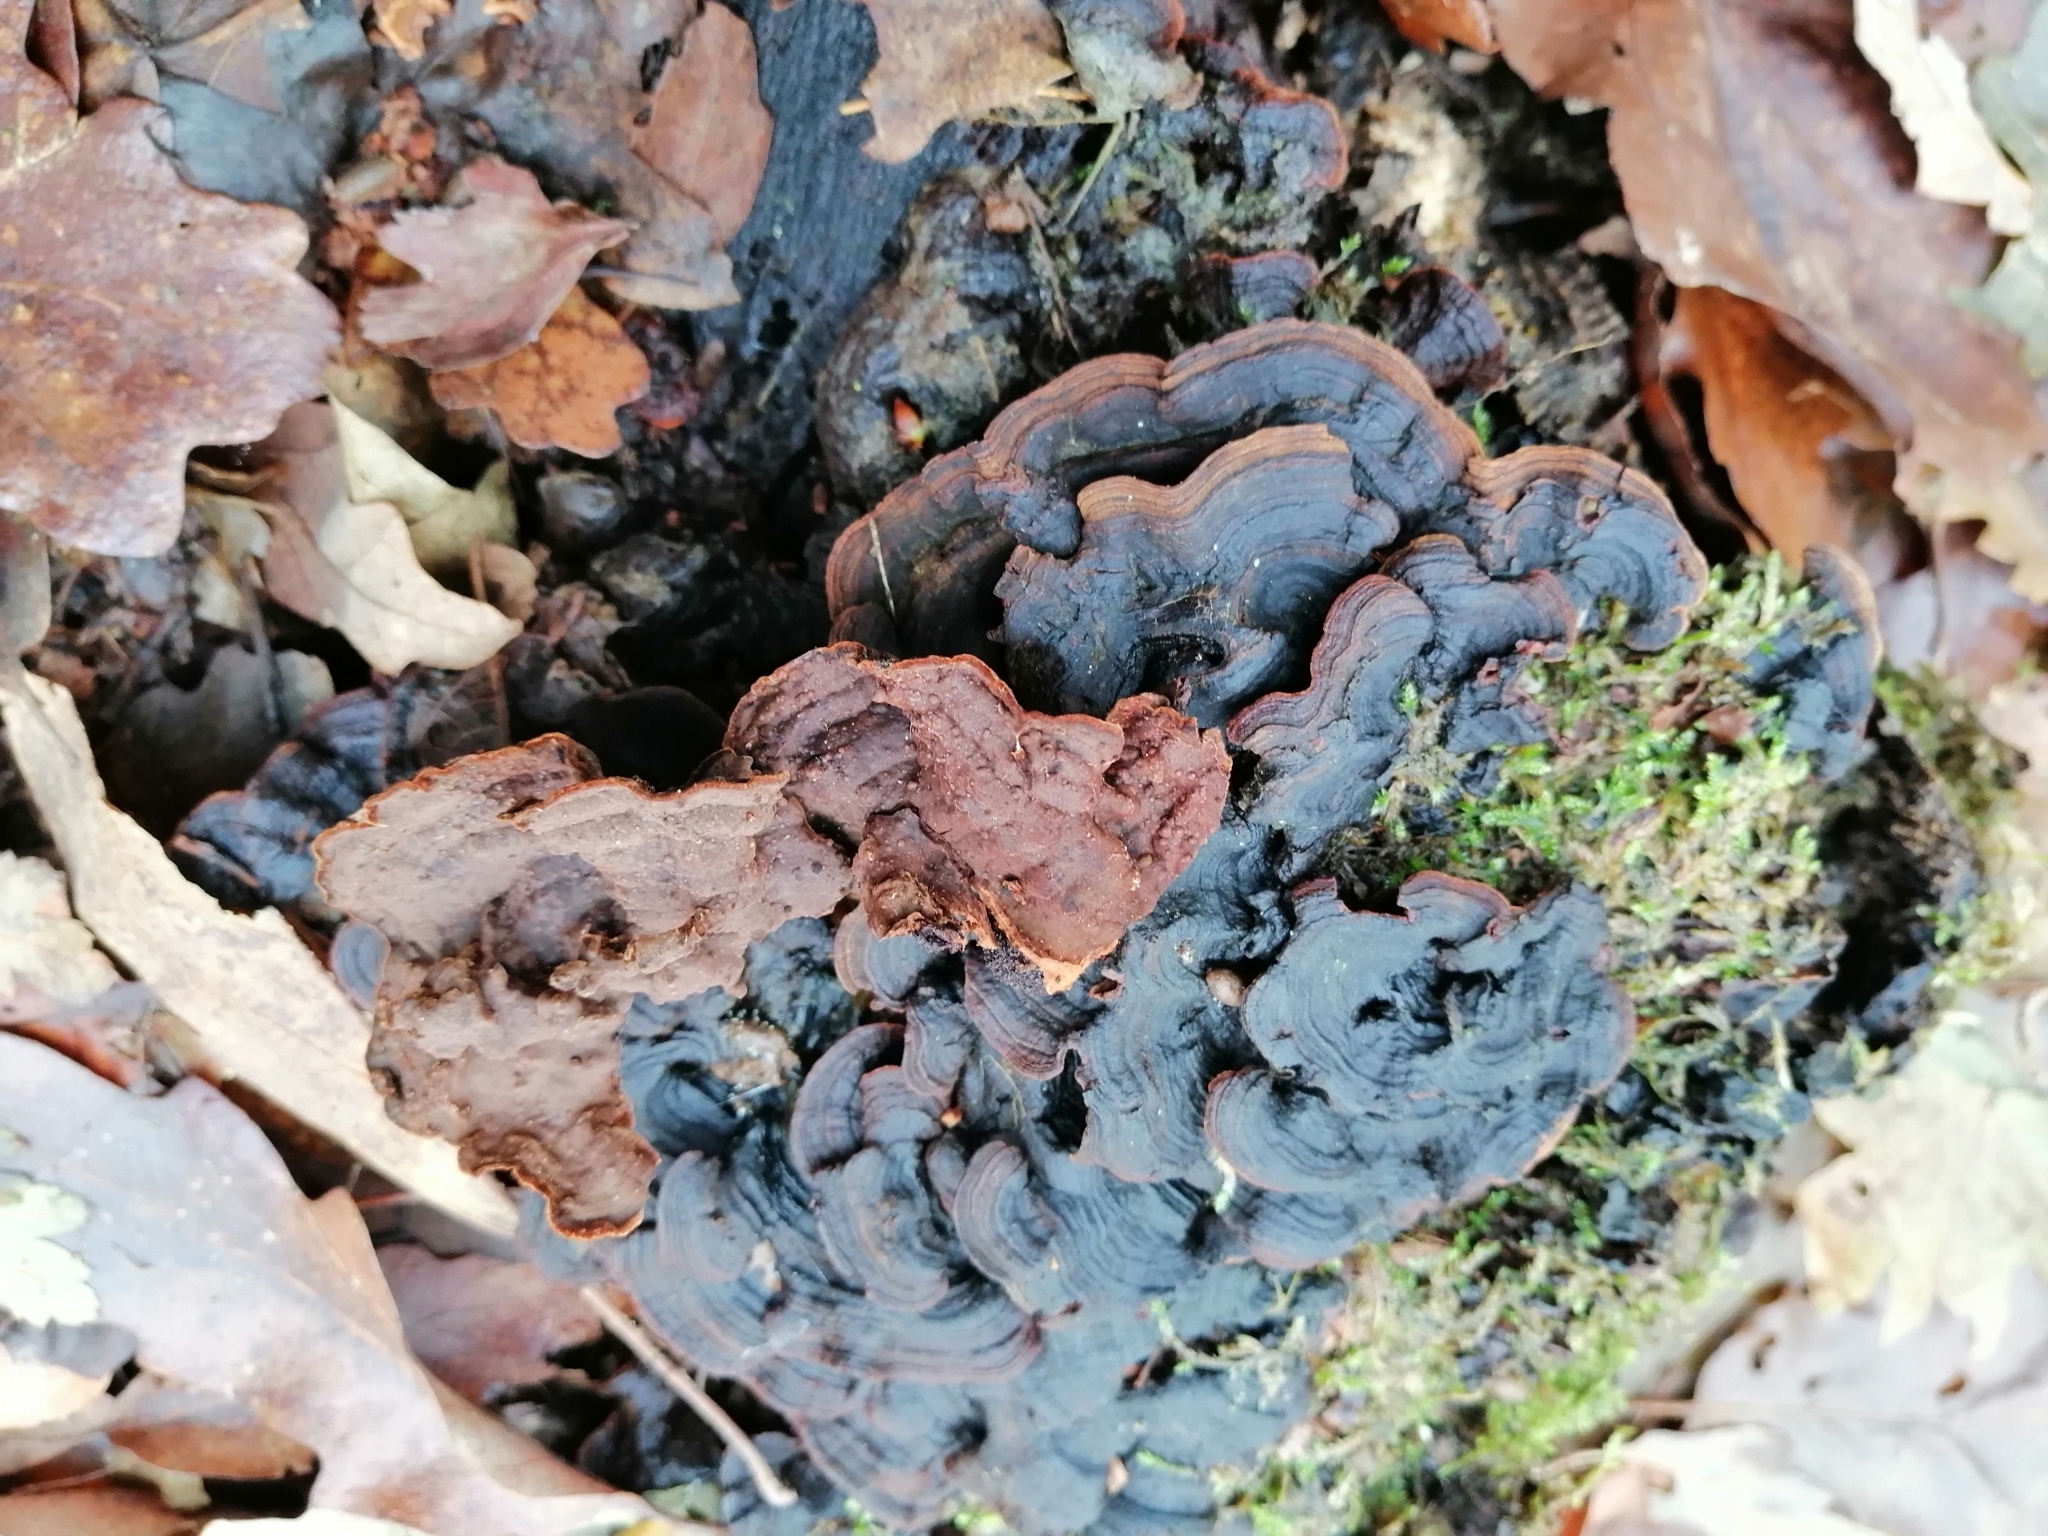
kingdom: Fungi
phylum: Basidiomycota
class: Agaricomycetes
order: Hymenochaetales
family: Hymenochaetaceae
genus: Hymenochaete
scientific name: Hymenochaete rubiginosa
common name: Oak curtain crust
